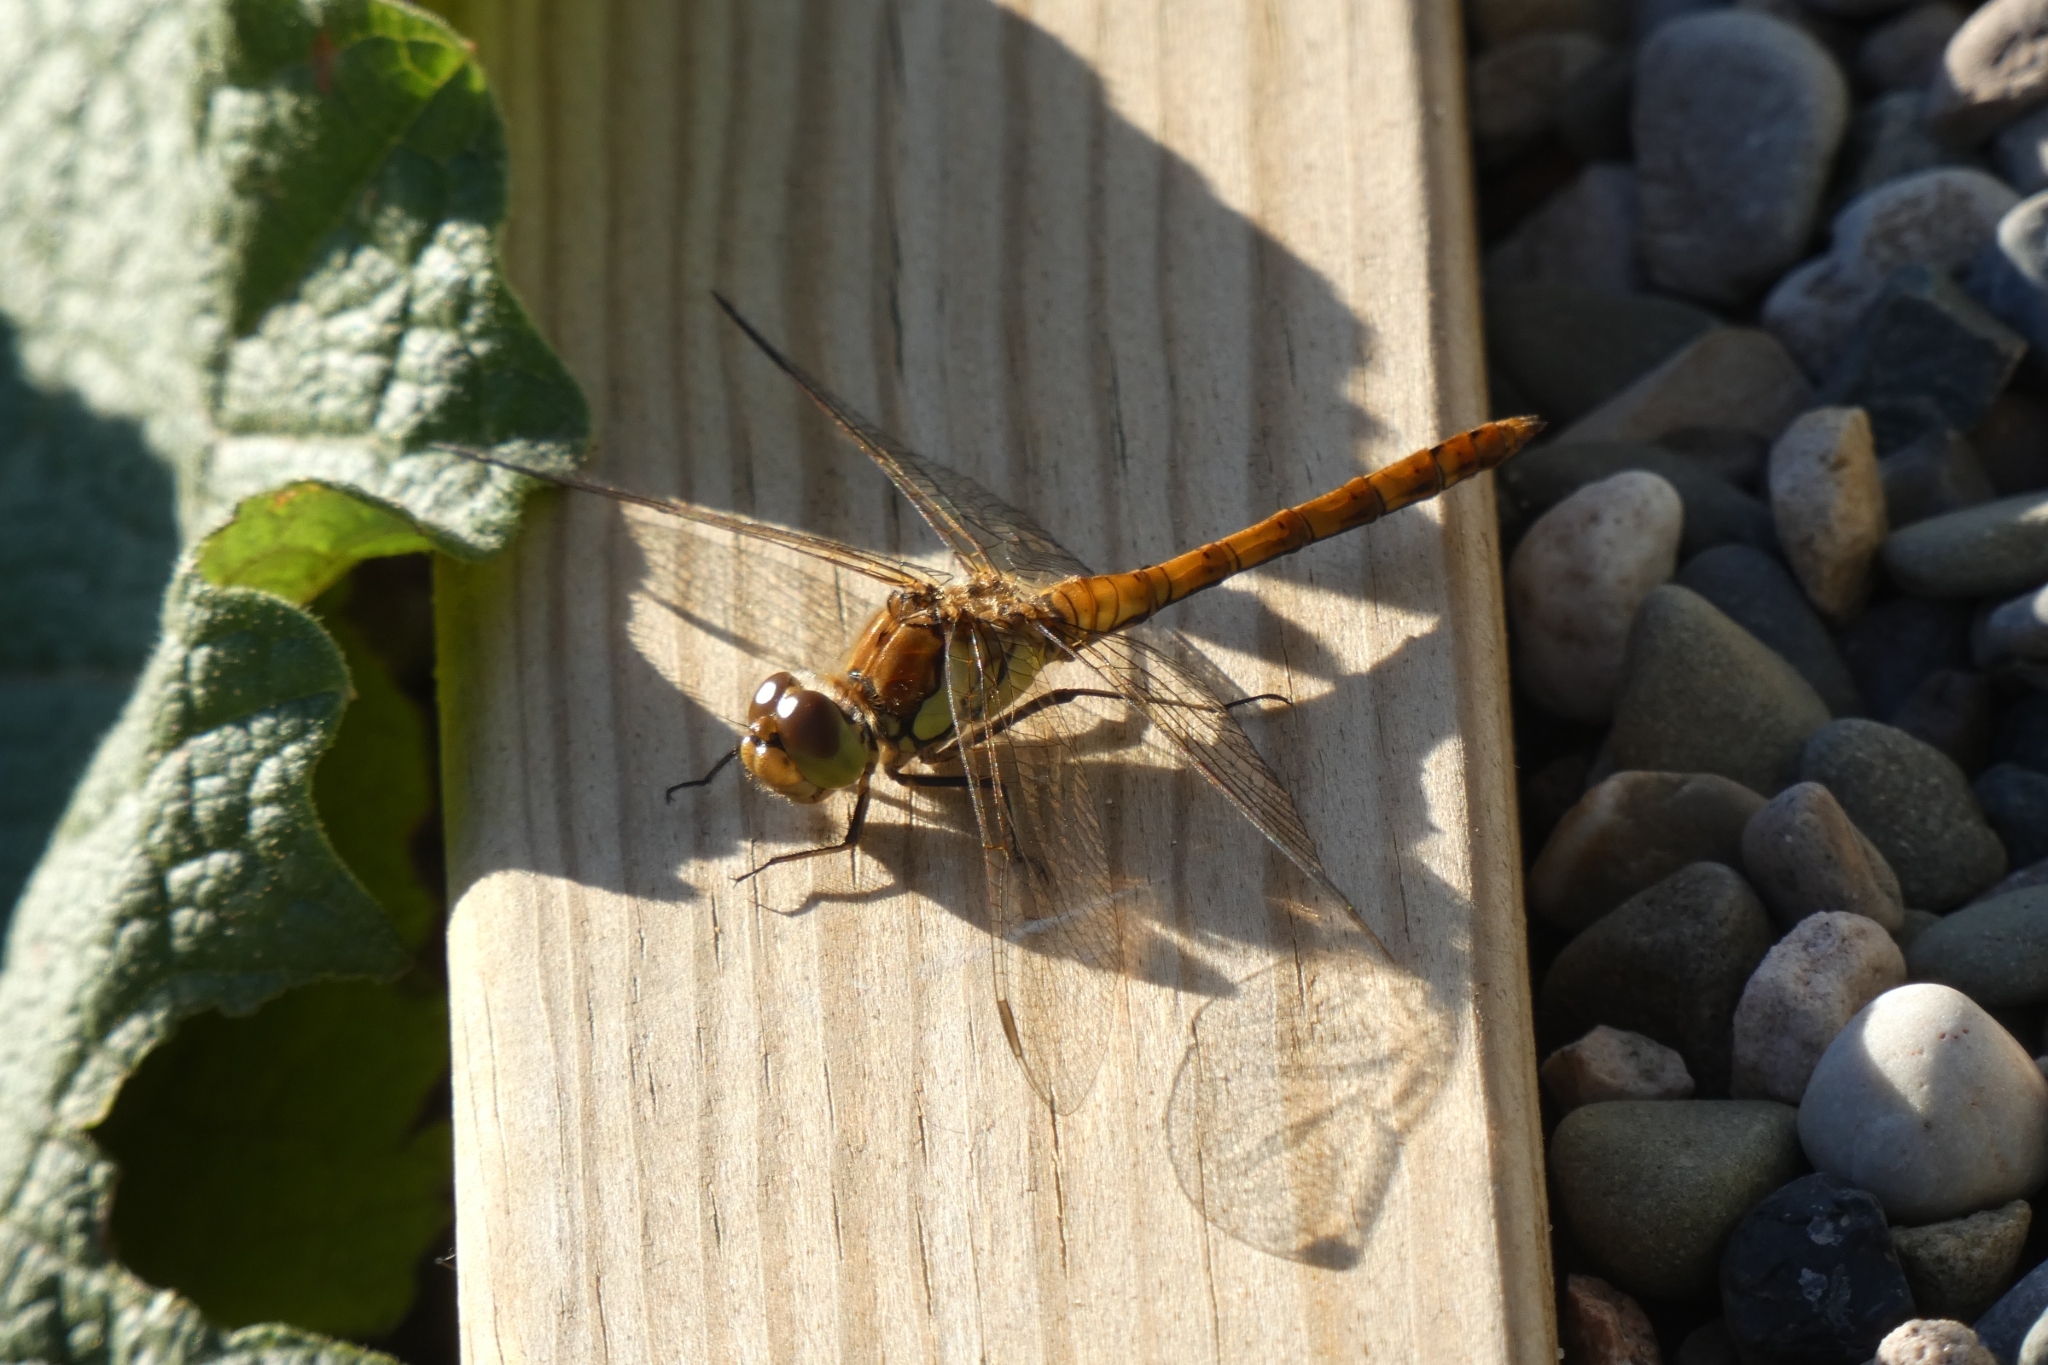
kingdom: Animalia
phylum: Arthropoda
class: Insecta
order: Odonata
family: Libellulidae
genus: Sympetrum
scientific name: Sympetrum striolatum
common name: Common darter
